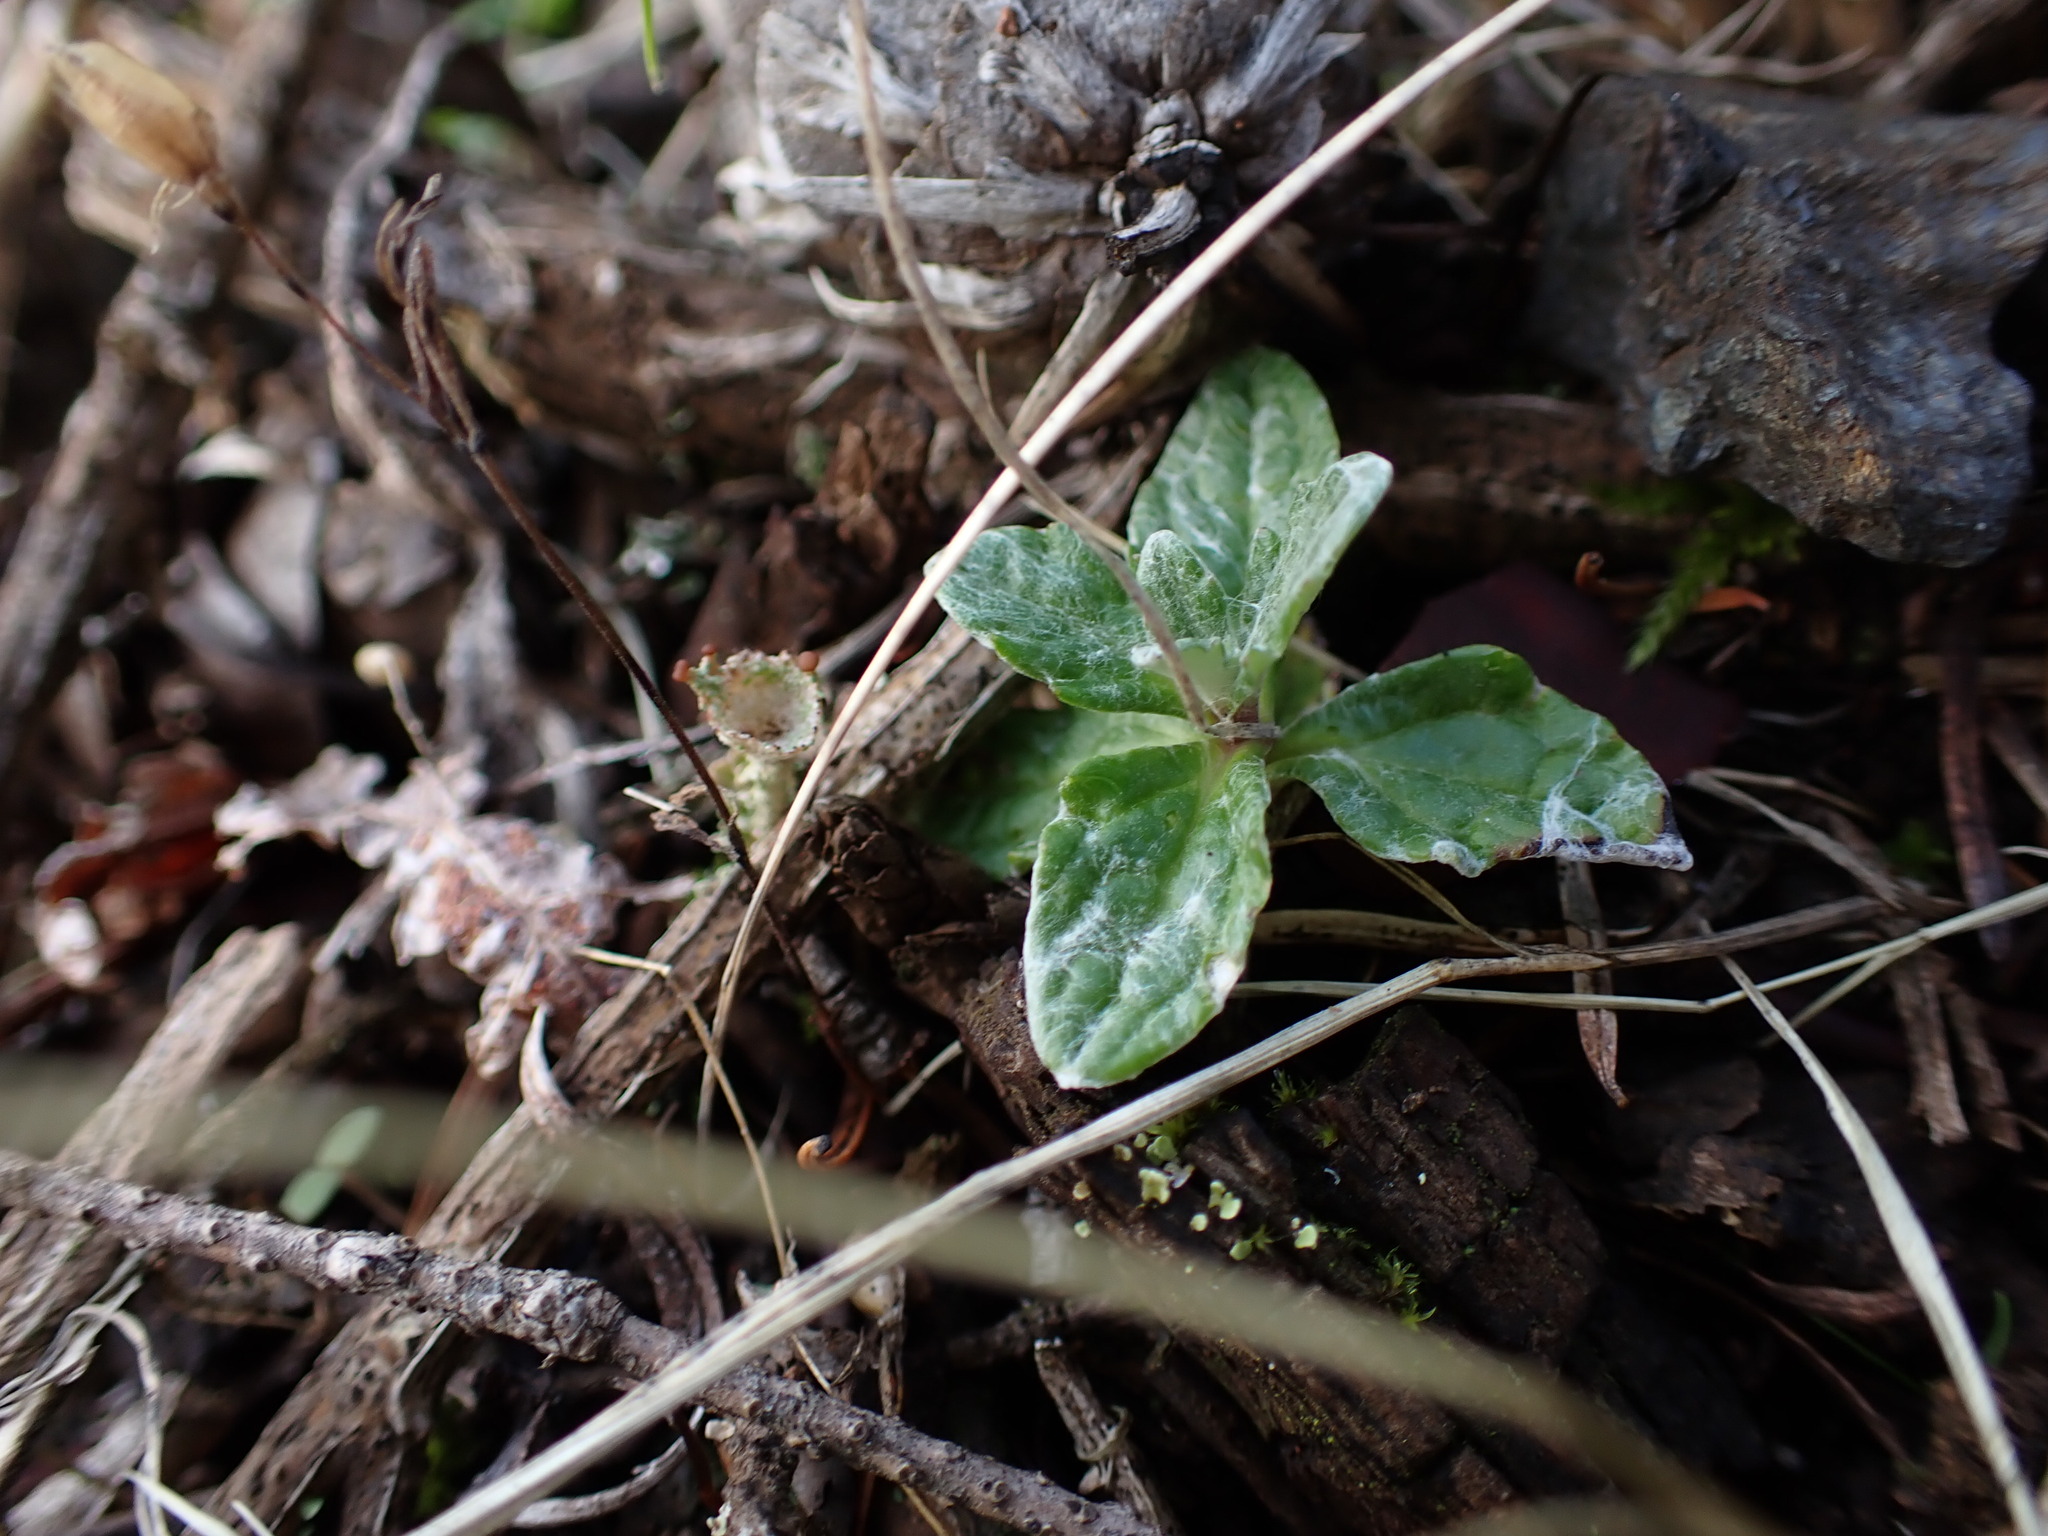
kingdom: Plantae
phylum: Tracheophyta
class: Magnoliopsida
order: Asterales
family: Asteraceae
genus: Eriophyllum
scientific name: Eriophyllum lanatum
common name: Common woolly-sunflower
